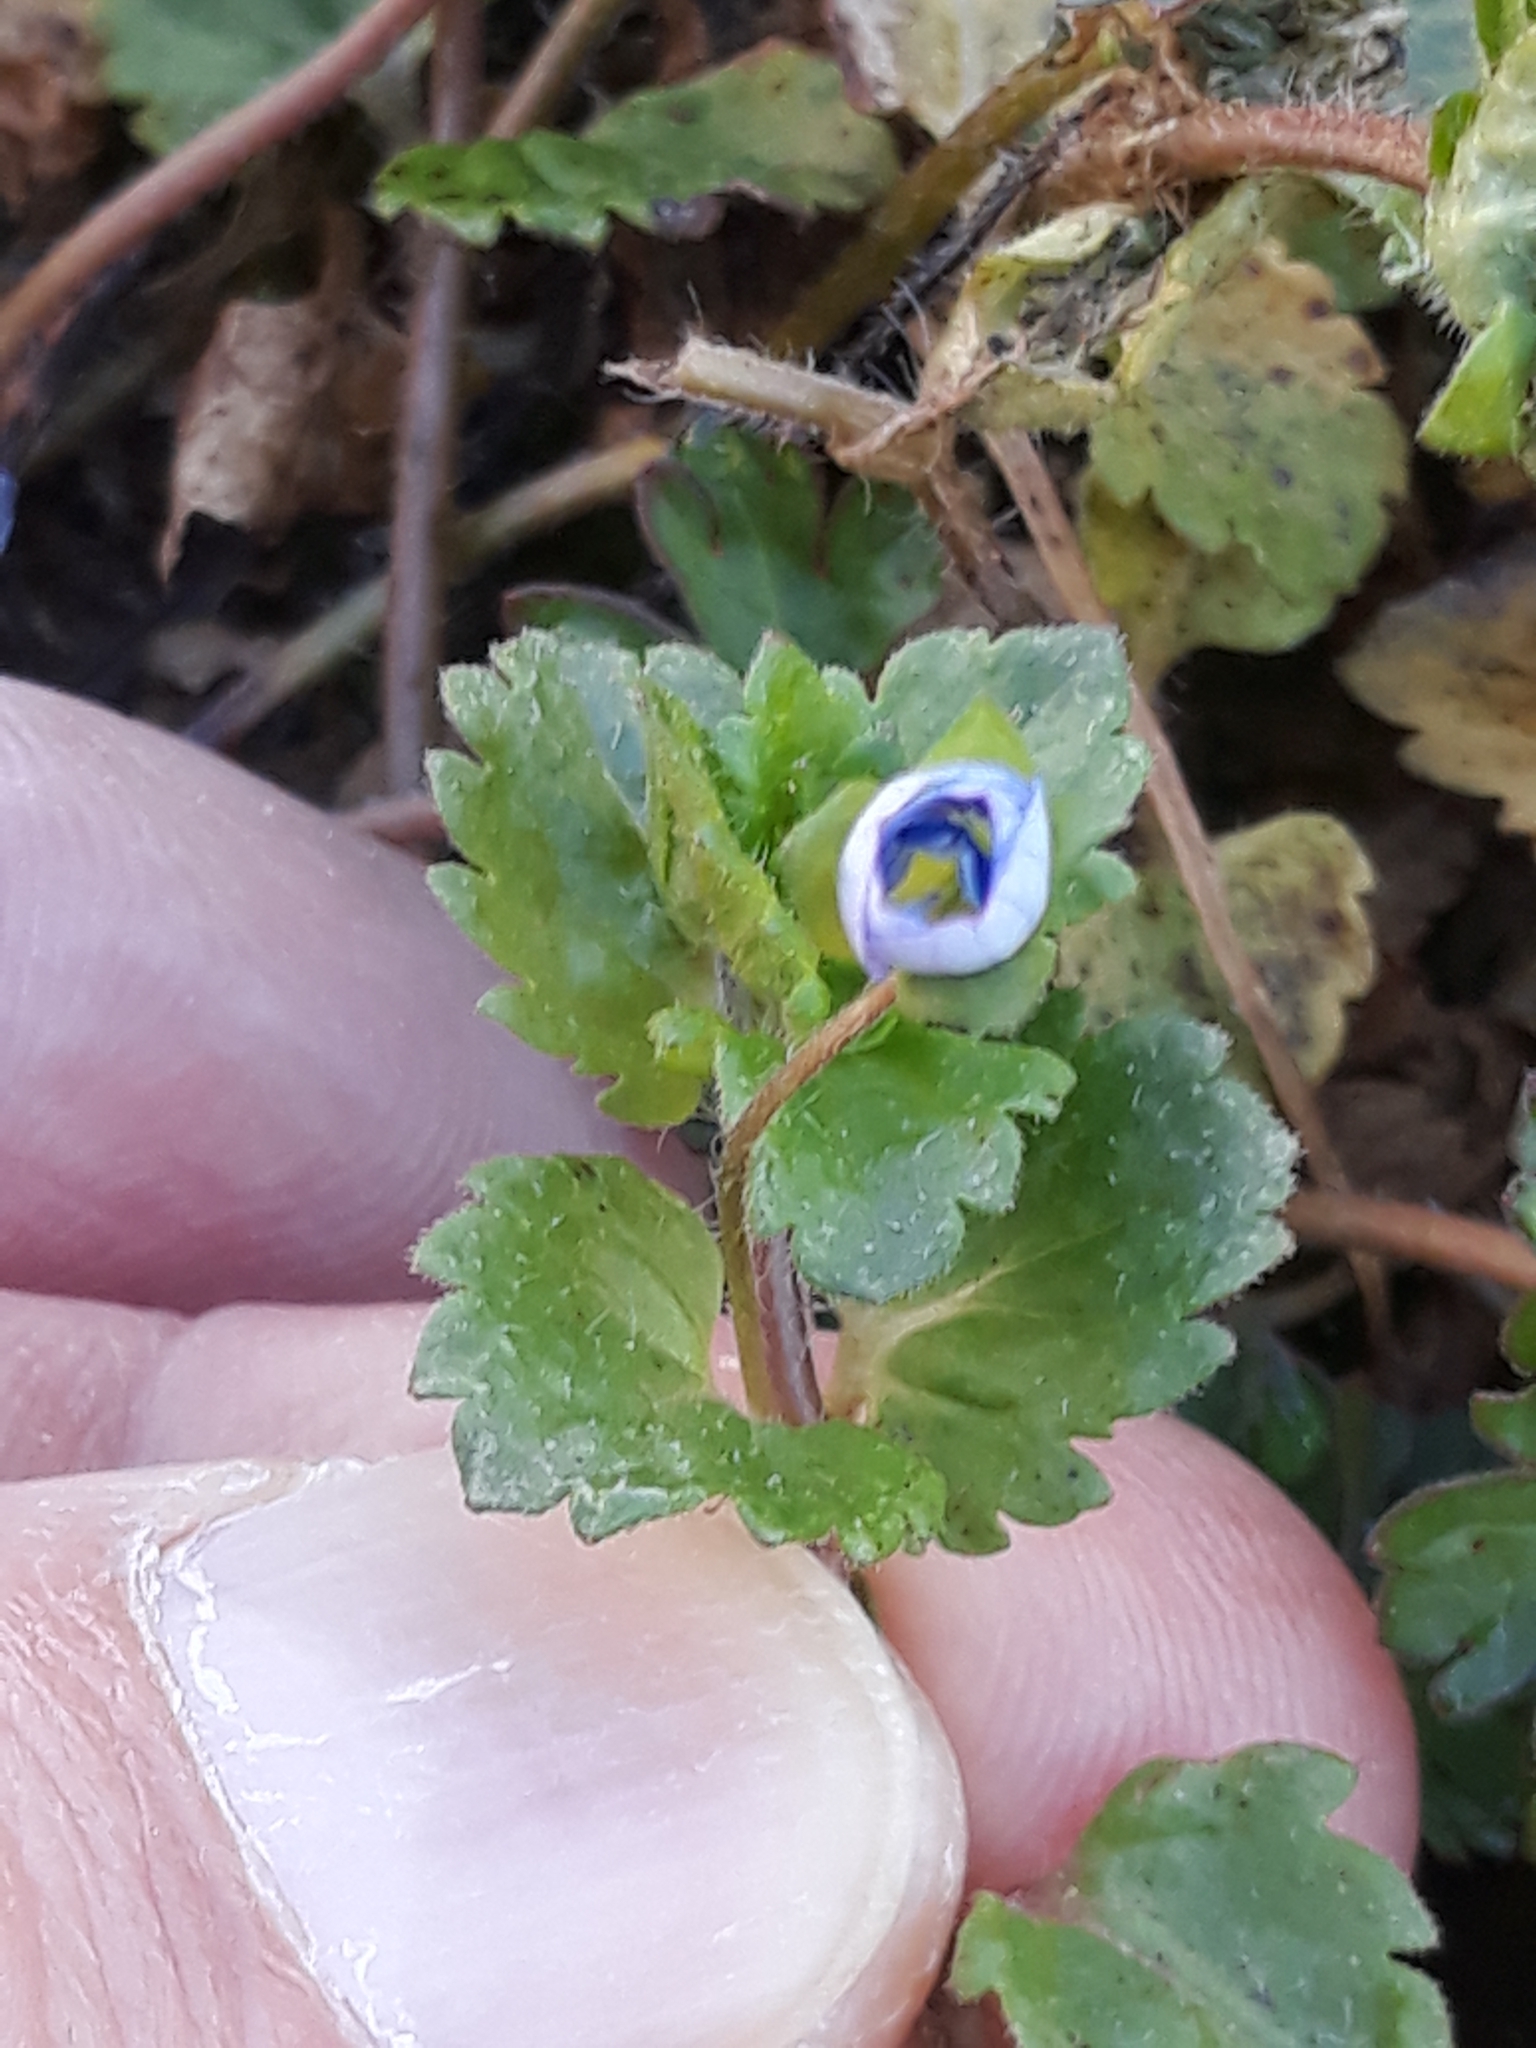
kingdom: Plantae
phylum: Tracheophyta
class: Magnoliopsida
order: Lamiales
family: Plantaginaceae
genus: Veronica
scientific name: Veronica persica
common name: Common field-speedwell
